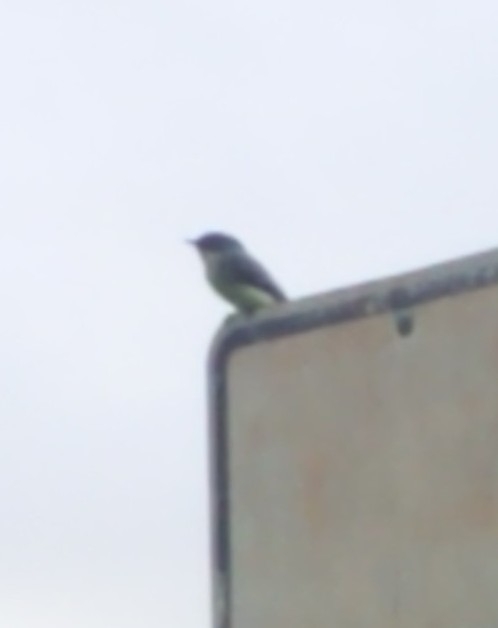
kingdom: Animalia
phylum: Chordata
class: Aves
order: Passeriformes
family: Tyrannidae
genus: Sayornis
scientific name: Sayornis phoebe
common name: Eastern phoebe
